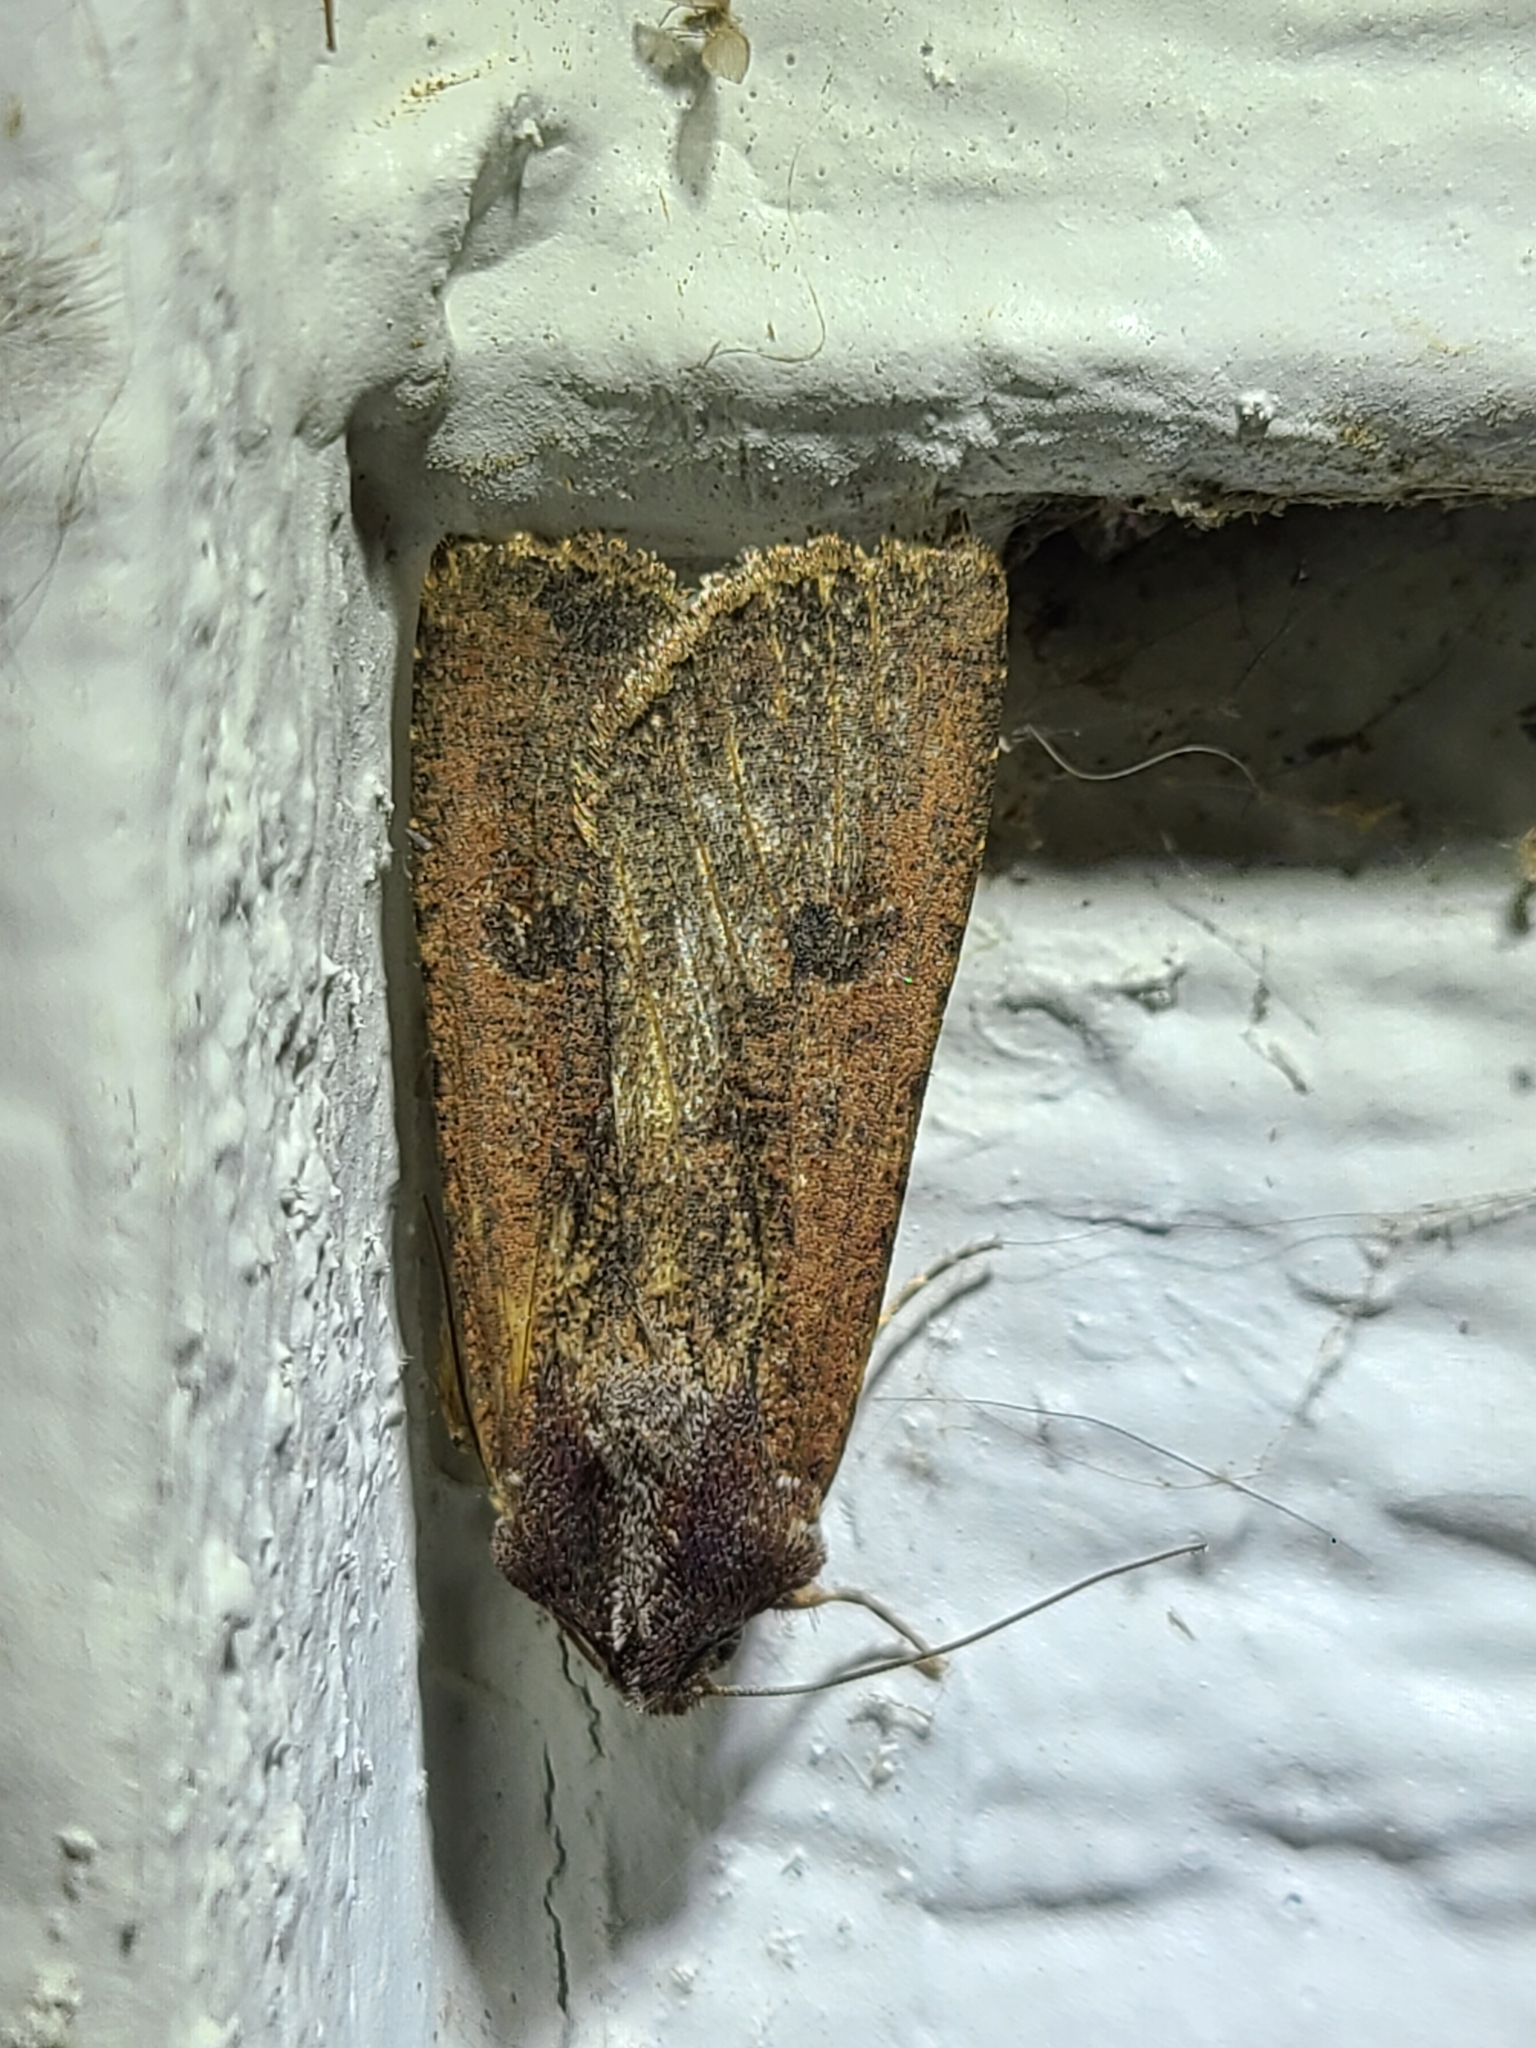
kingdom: Animalia
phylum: Arthropoda
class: Insecta
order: Lepidoptera
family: Noctuidae
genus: Peridroma
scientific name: Peridroma saucia
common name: Pearly underwing
